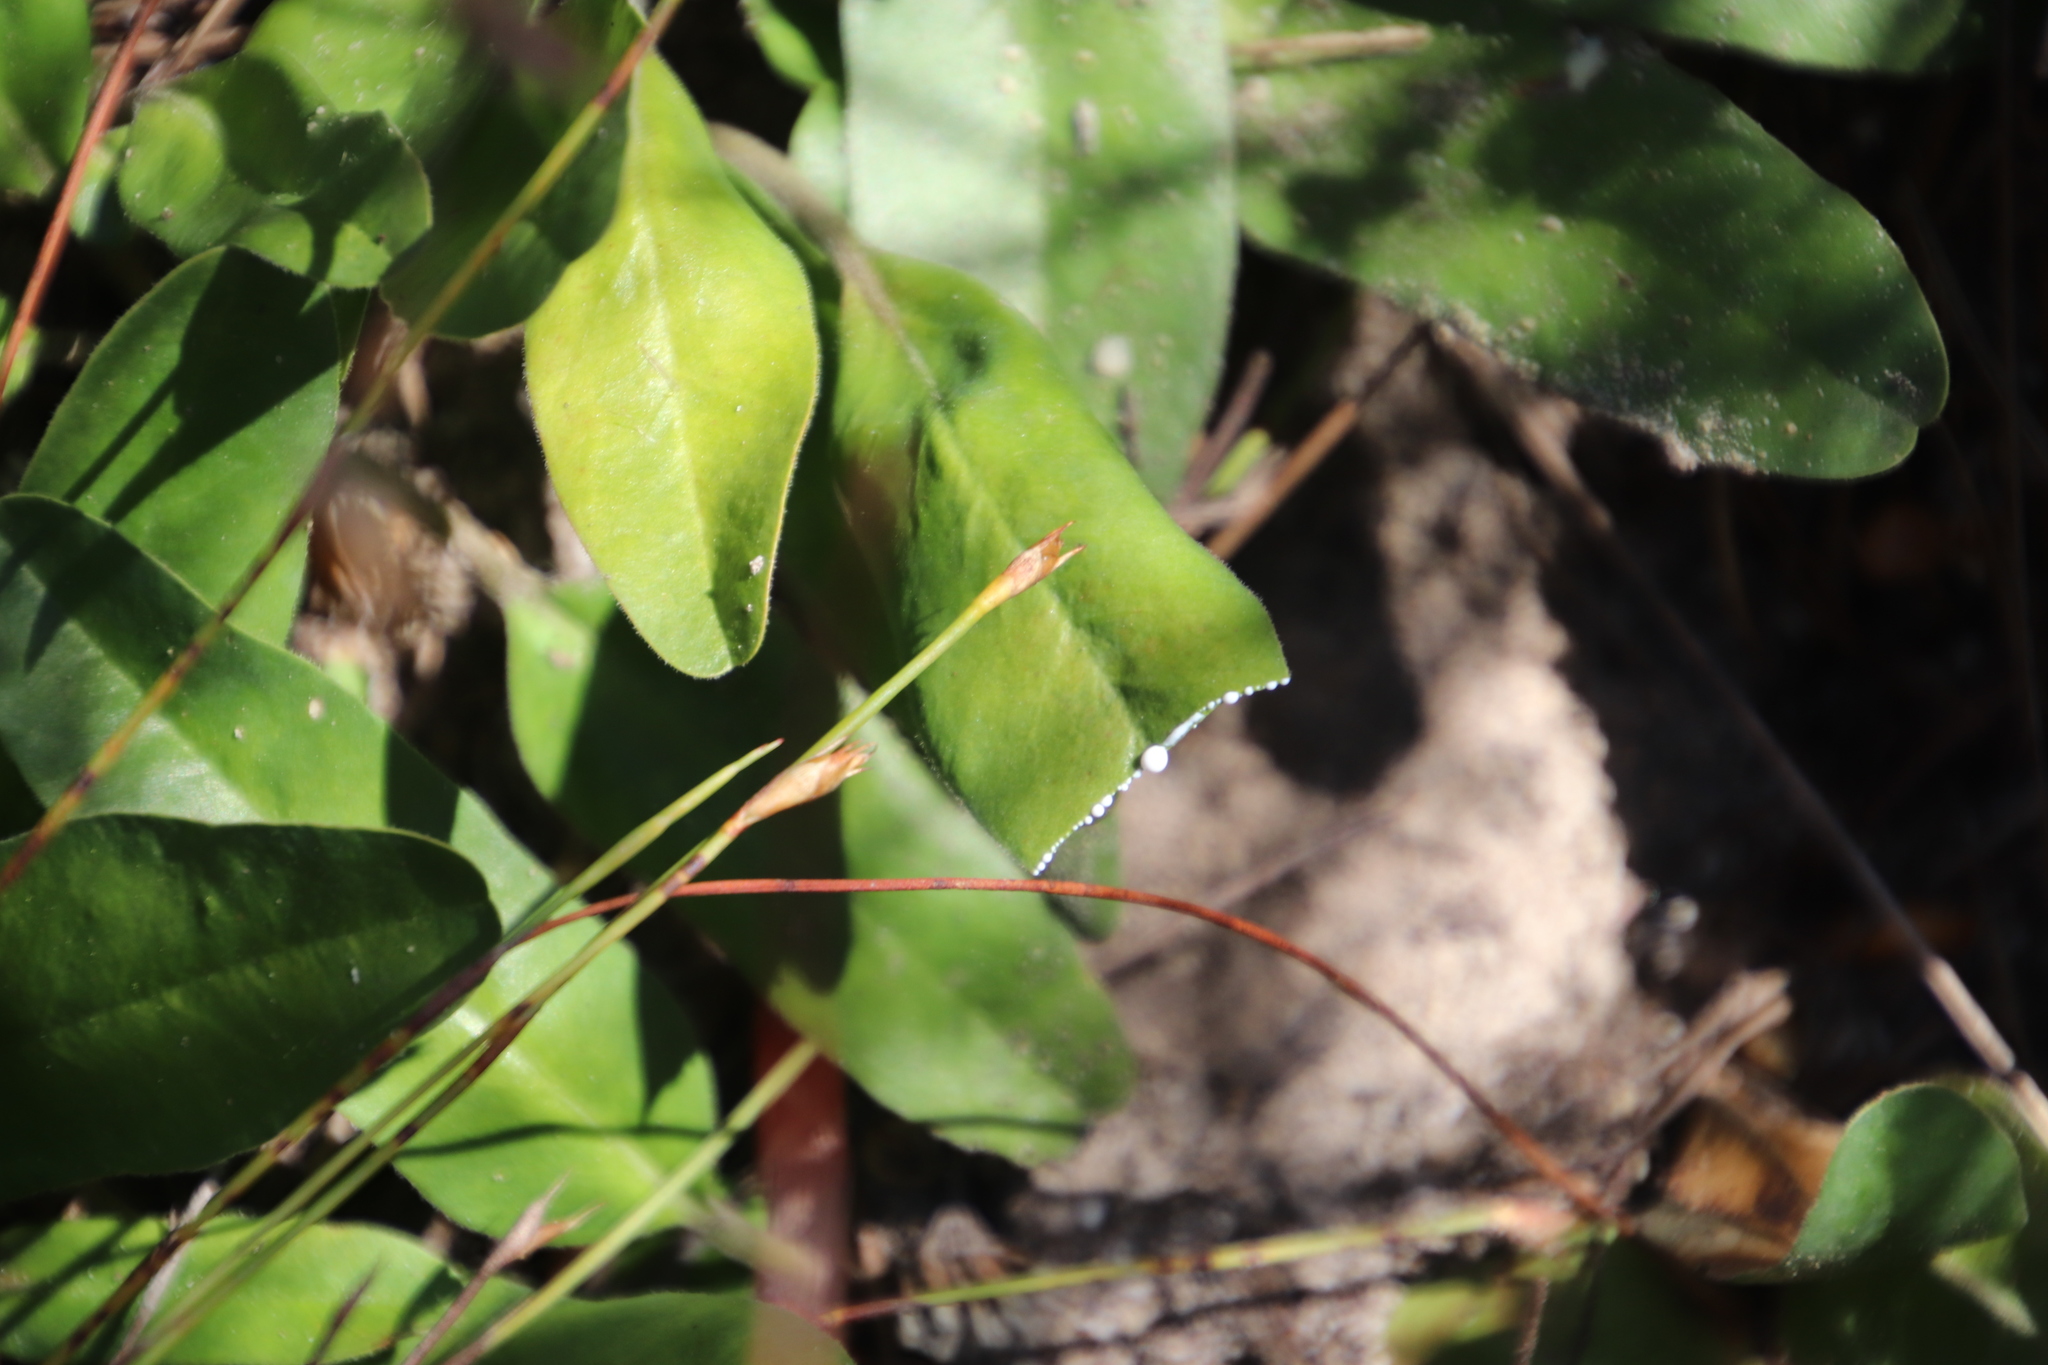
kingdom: Plantae
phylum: Tracheophyta
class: Magnoliopsida
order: Malpighiales
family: Euphorbiaceae
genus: Euphorbia
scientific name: Euphorbia tuberosa
